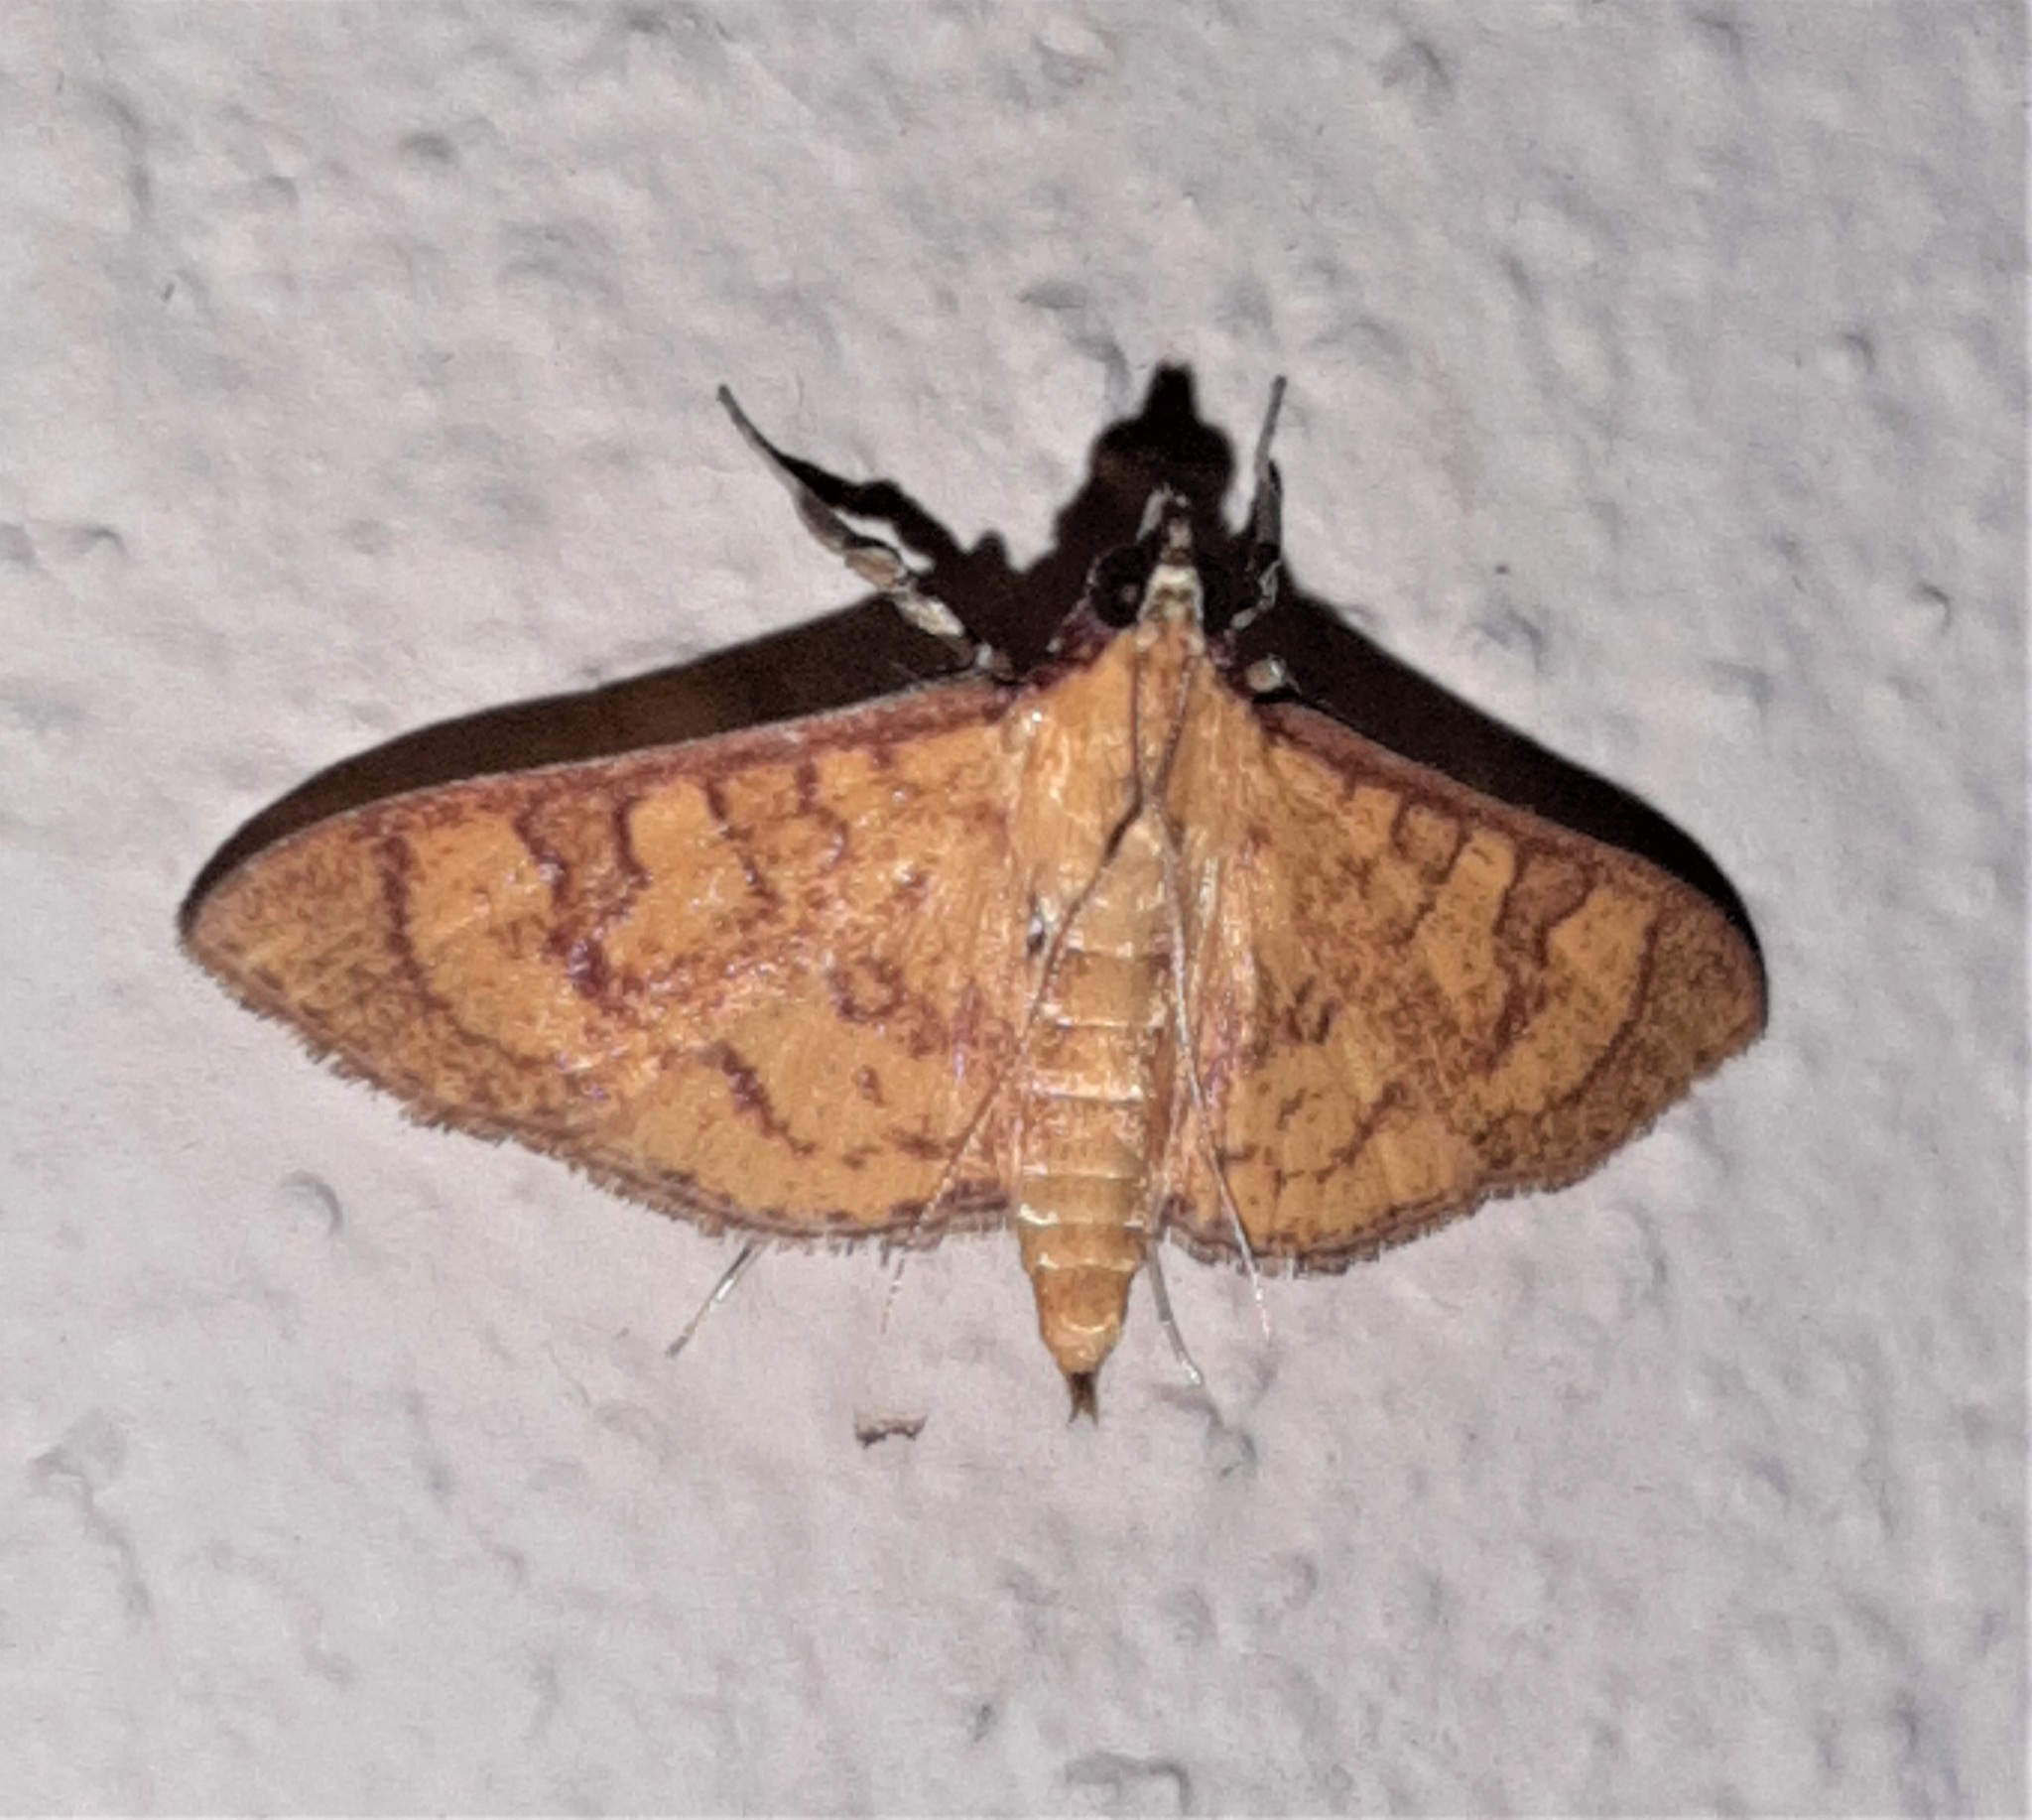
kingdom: Animalia
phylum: Arthropoda
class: Insecta
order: Lepidoptera
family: Crambidae
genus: Trithyris
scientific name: Trithyris
